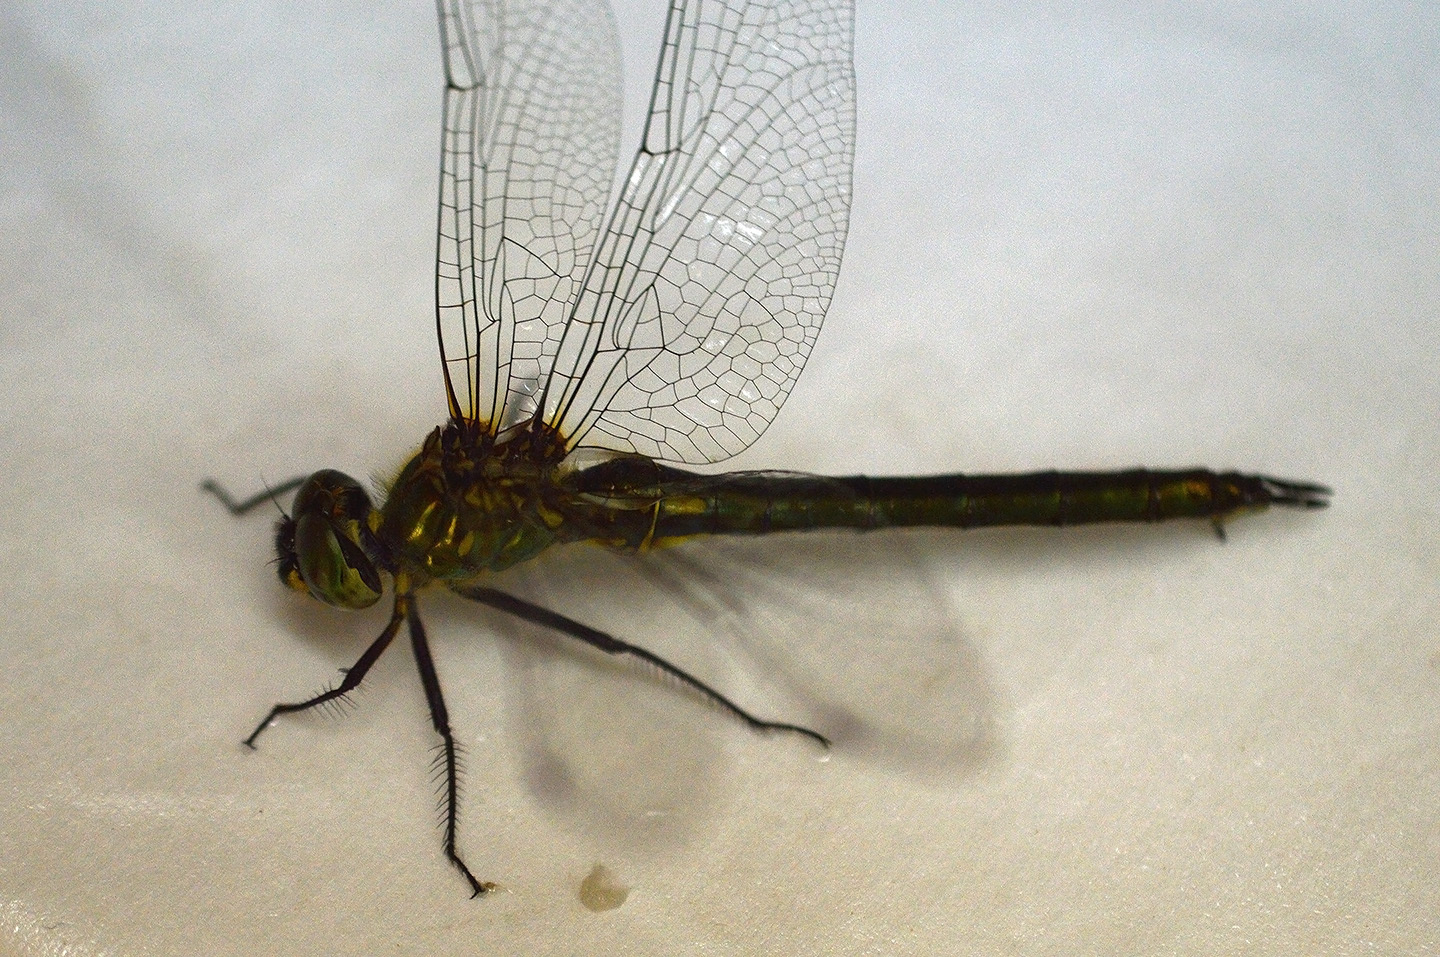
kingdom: Animalia
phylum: Arthropoda
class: Insecta
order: Odonata
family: Corduliidae
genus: Somatochlora
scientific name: Somatochlora meridionalis
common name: Balkan emerald
